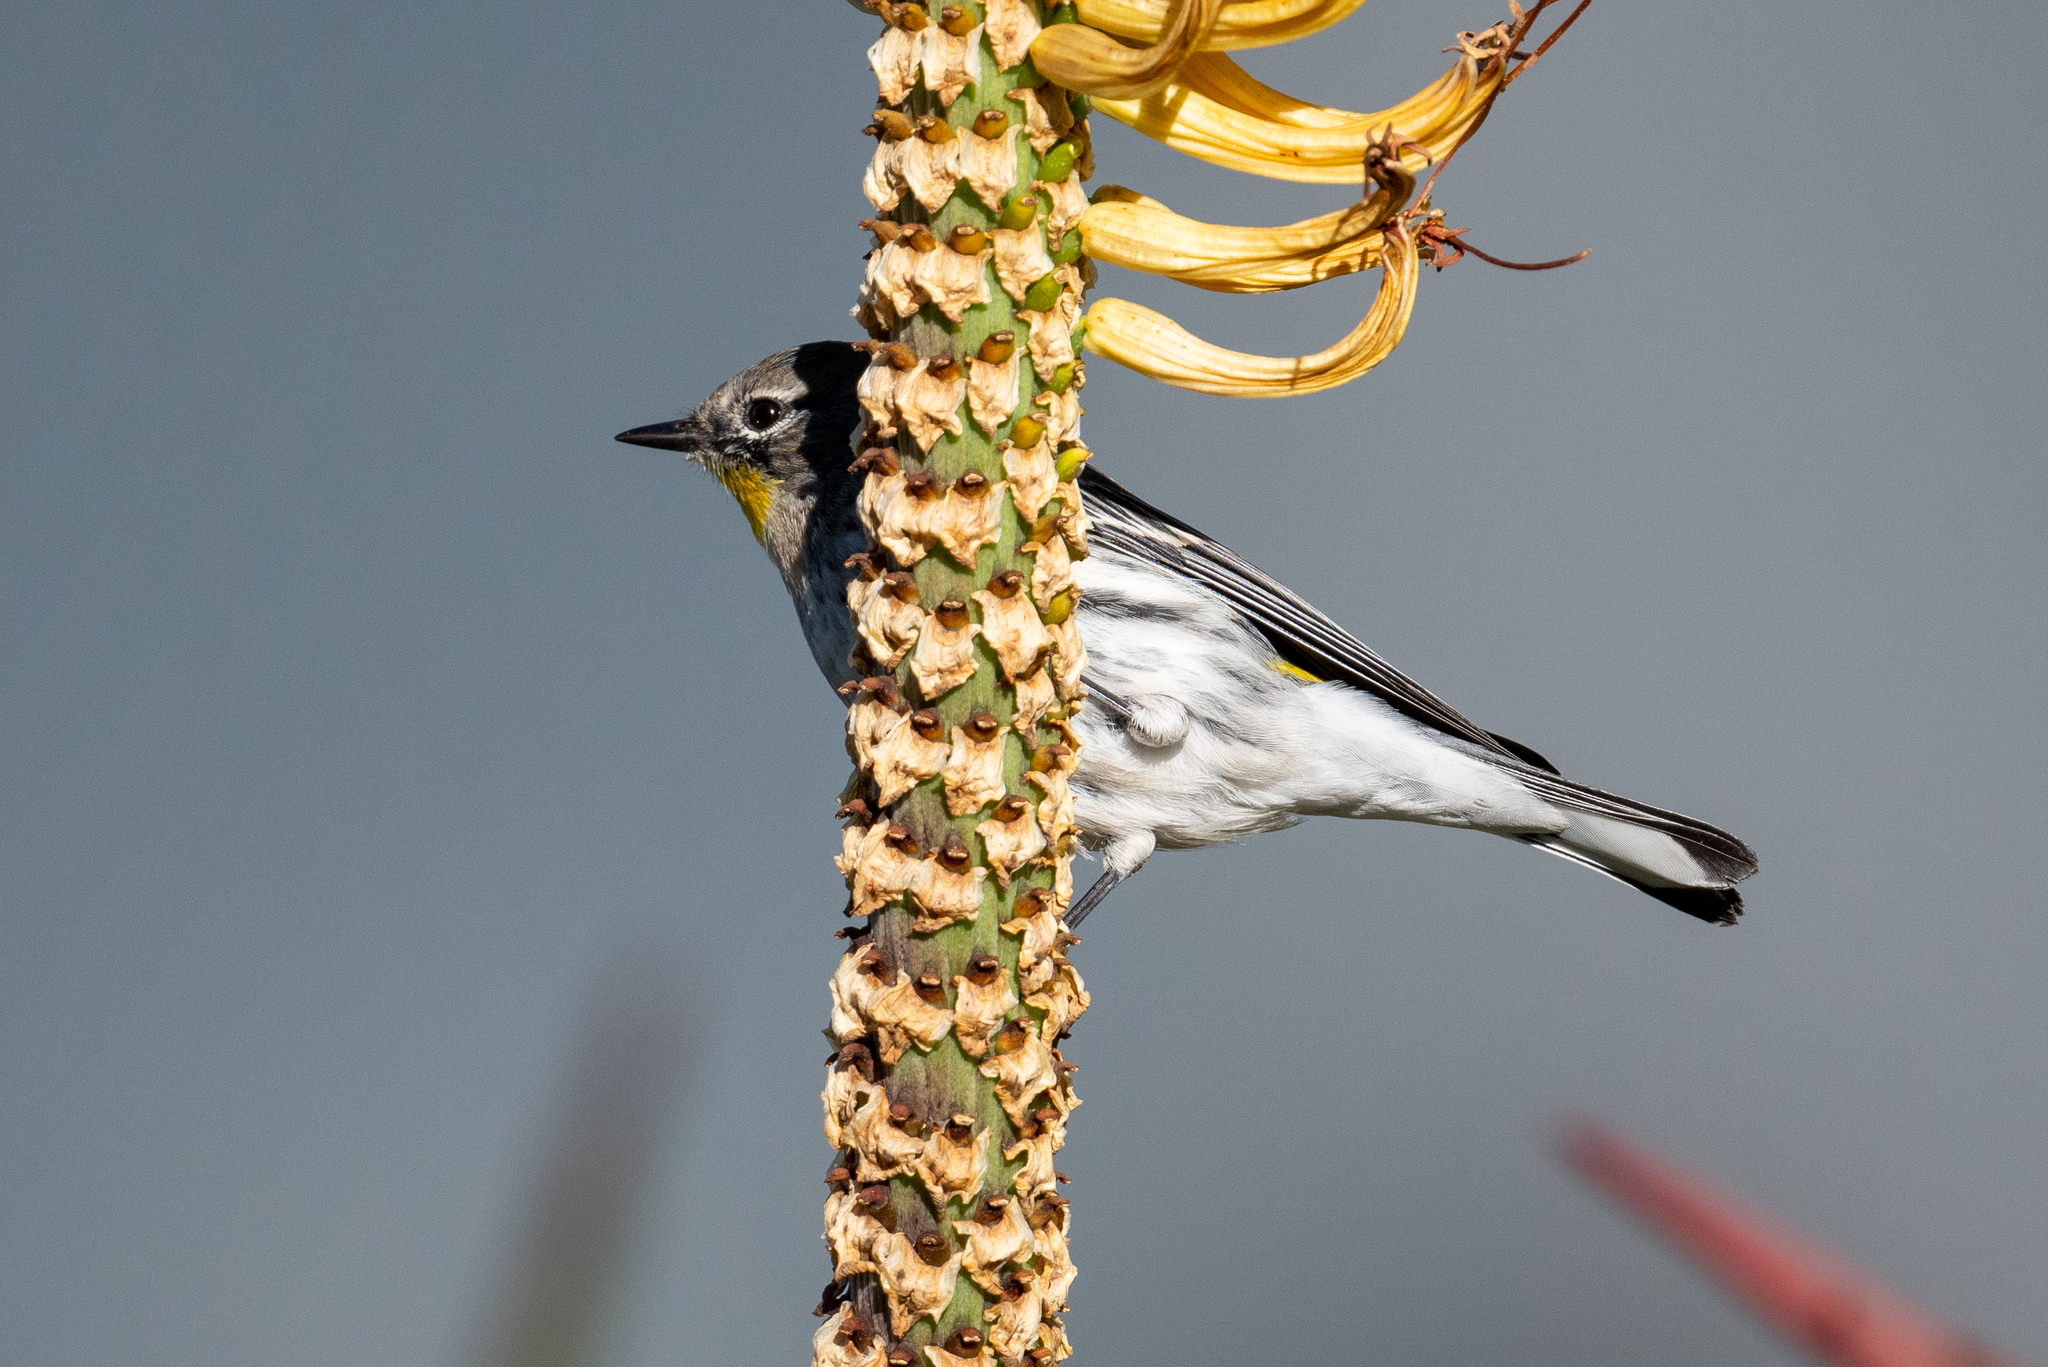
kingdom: Animalia
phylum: Chordata
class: Aves
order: Passeriformes
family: Parulidae
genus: Setophaga
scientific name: Setophaga coronata
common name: Myrtle warbler
